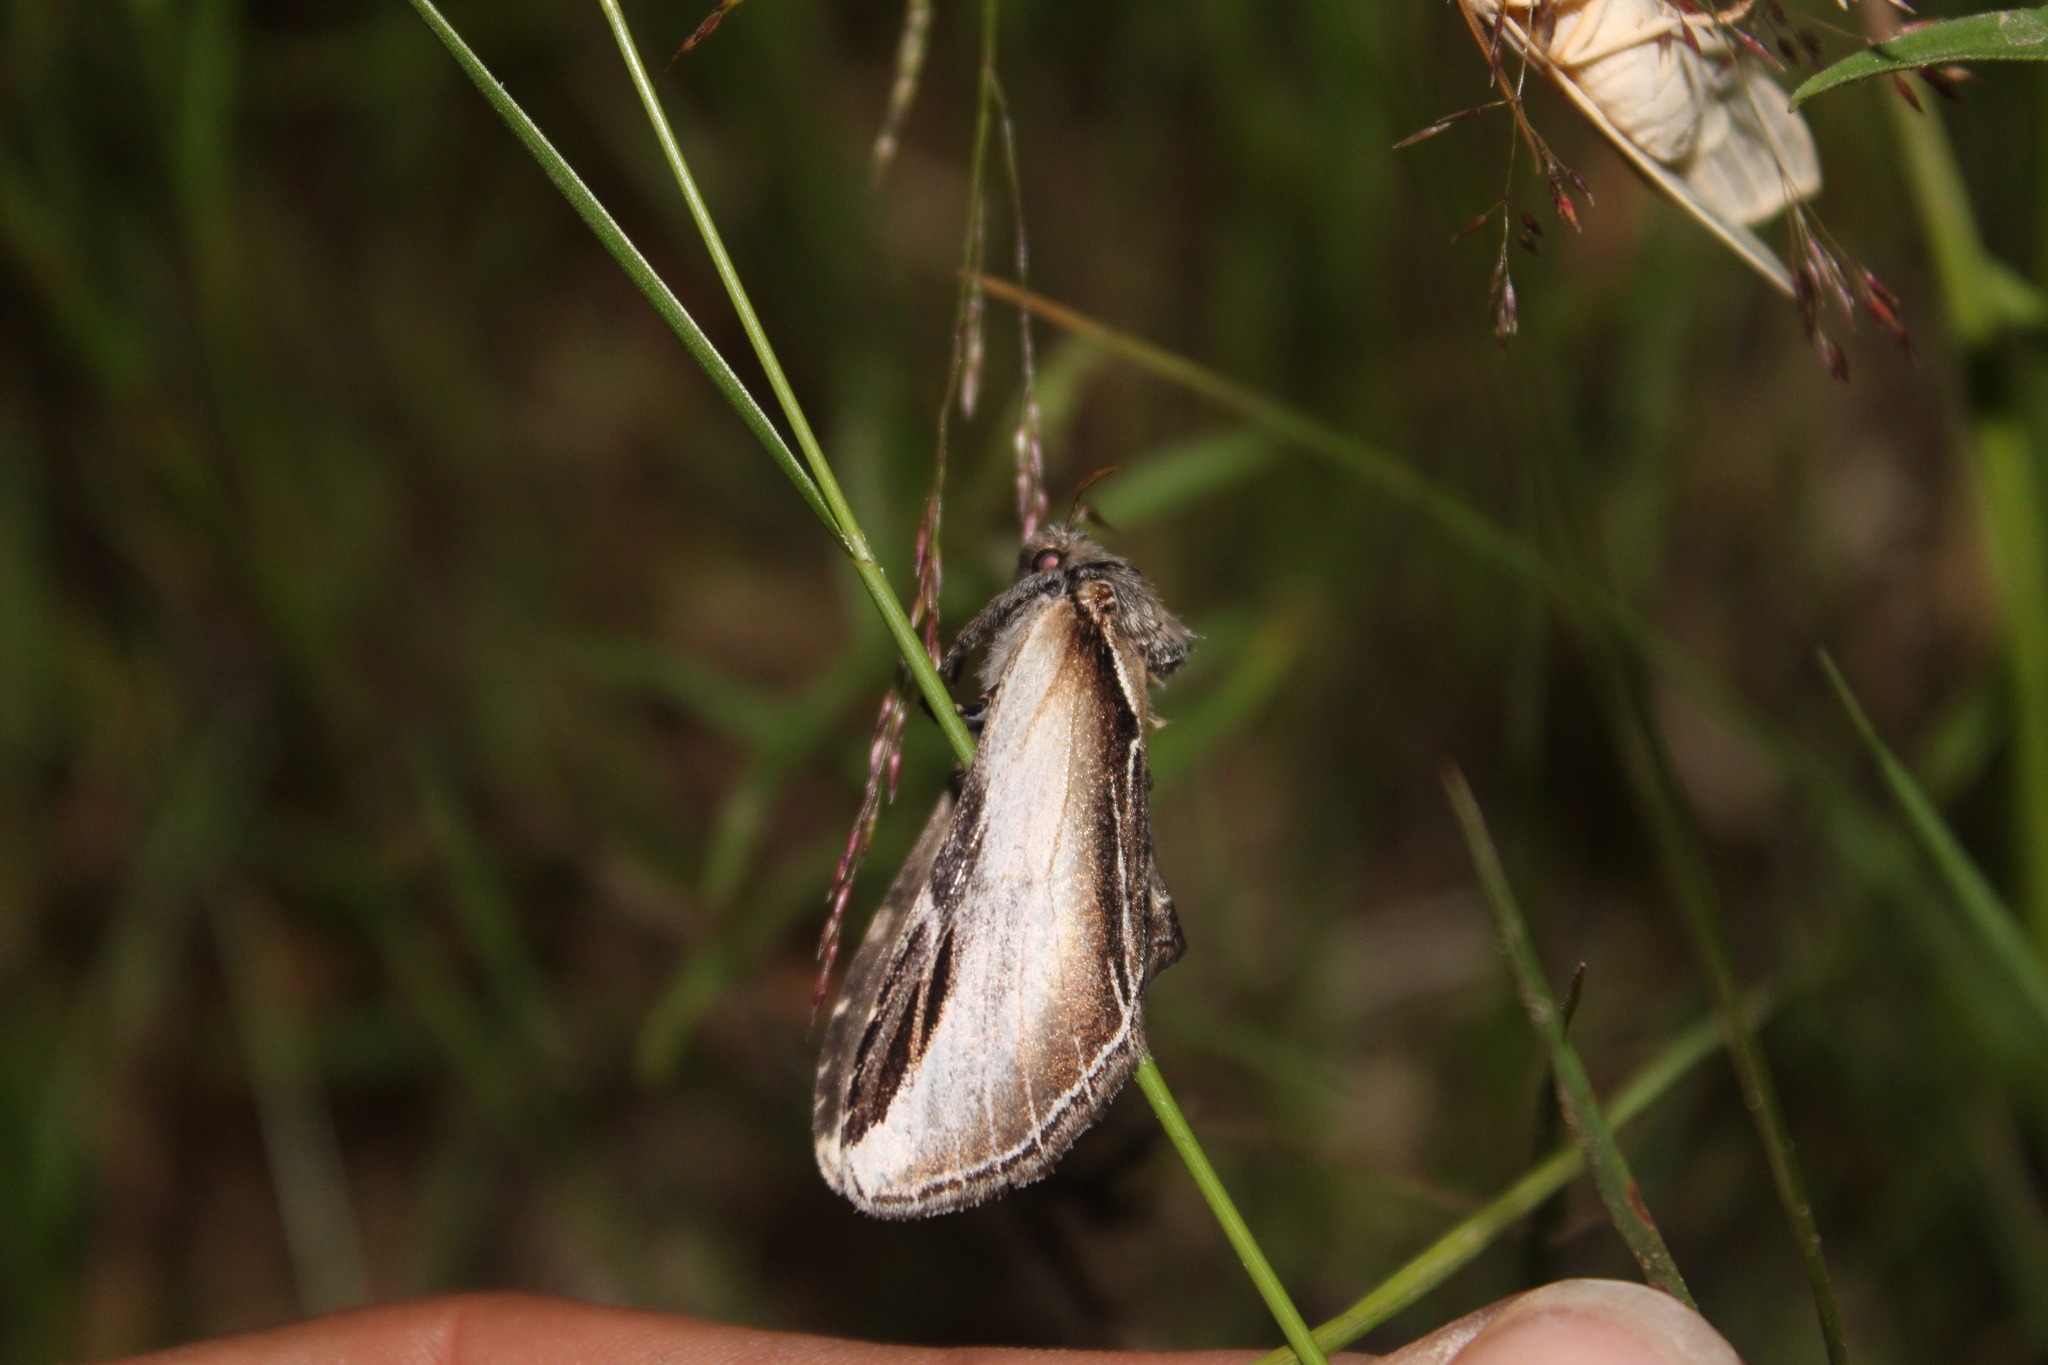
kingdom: Animalia
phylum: Arthropoda
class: Insecta
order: Lepidoptera
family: Notodontidae
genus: Pheosia
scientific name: Pheosia rimosa
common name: Black-rimmed prominent
